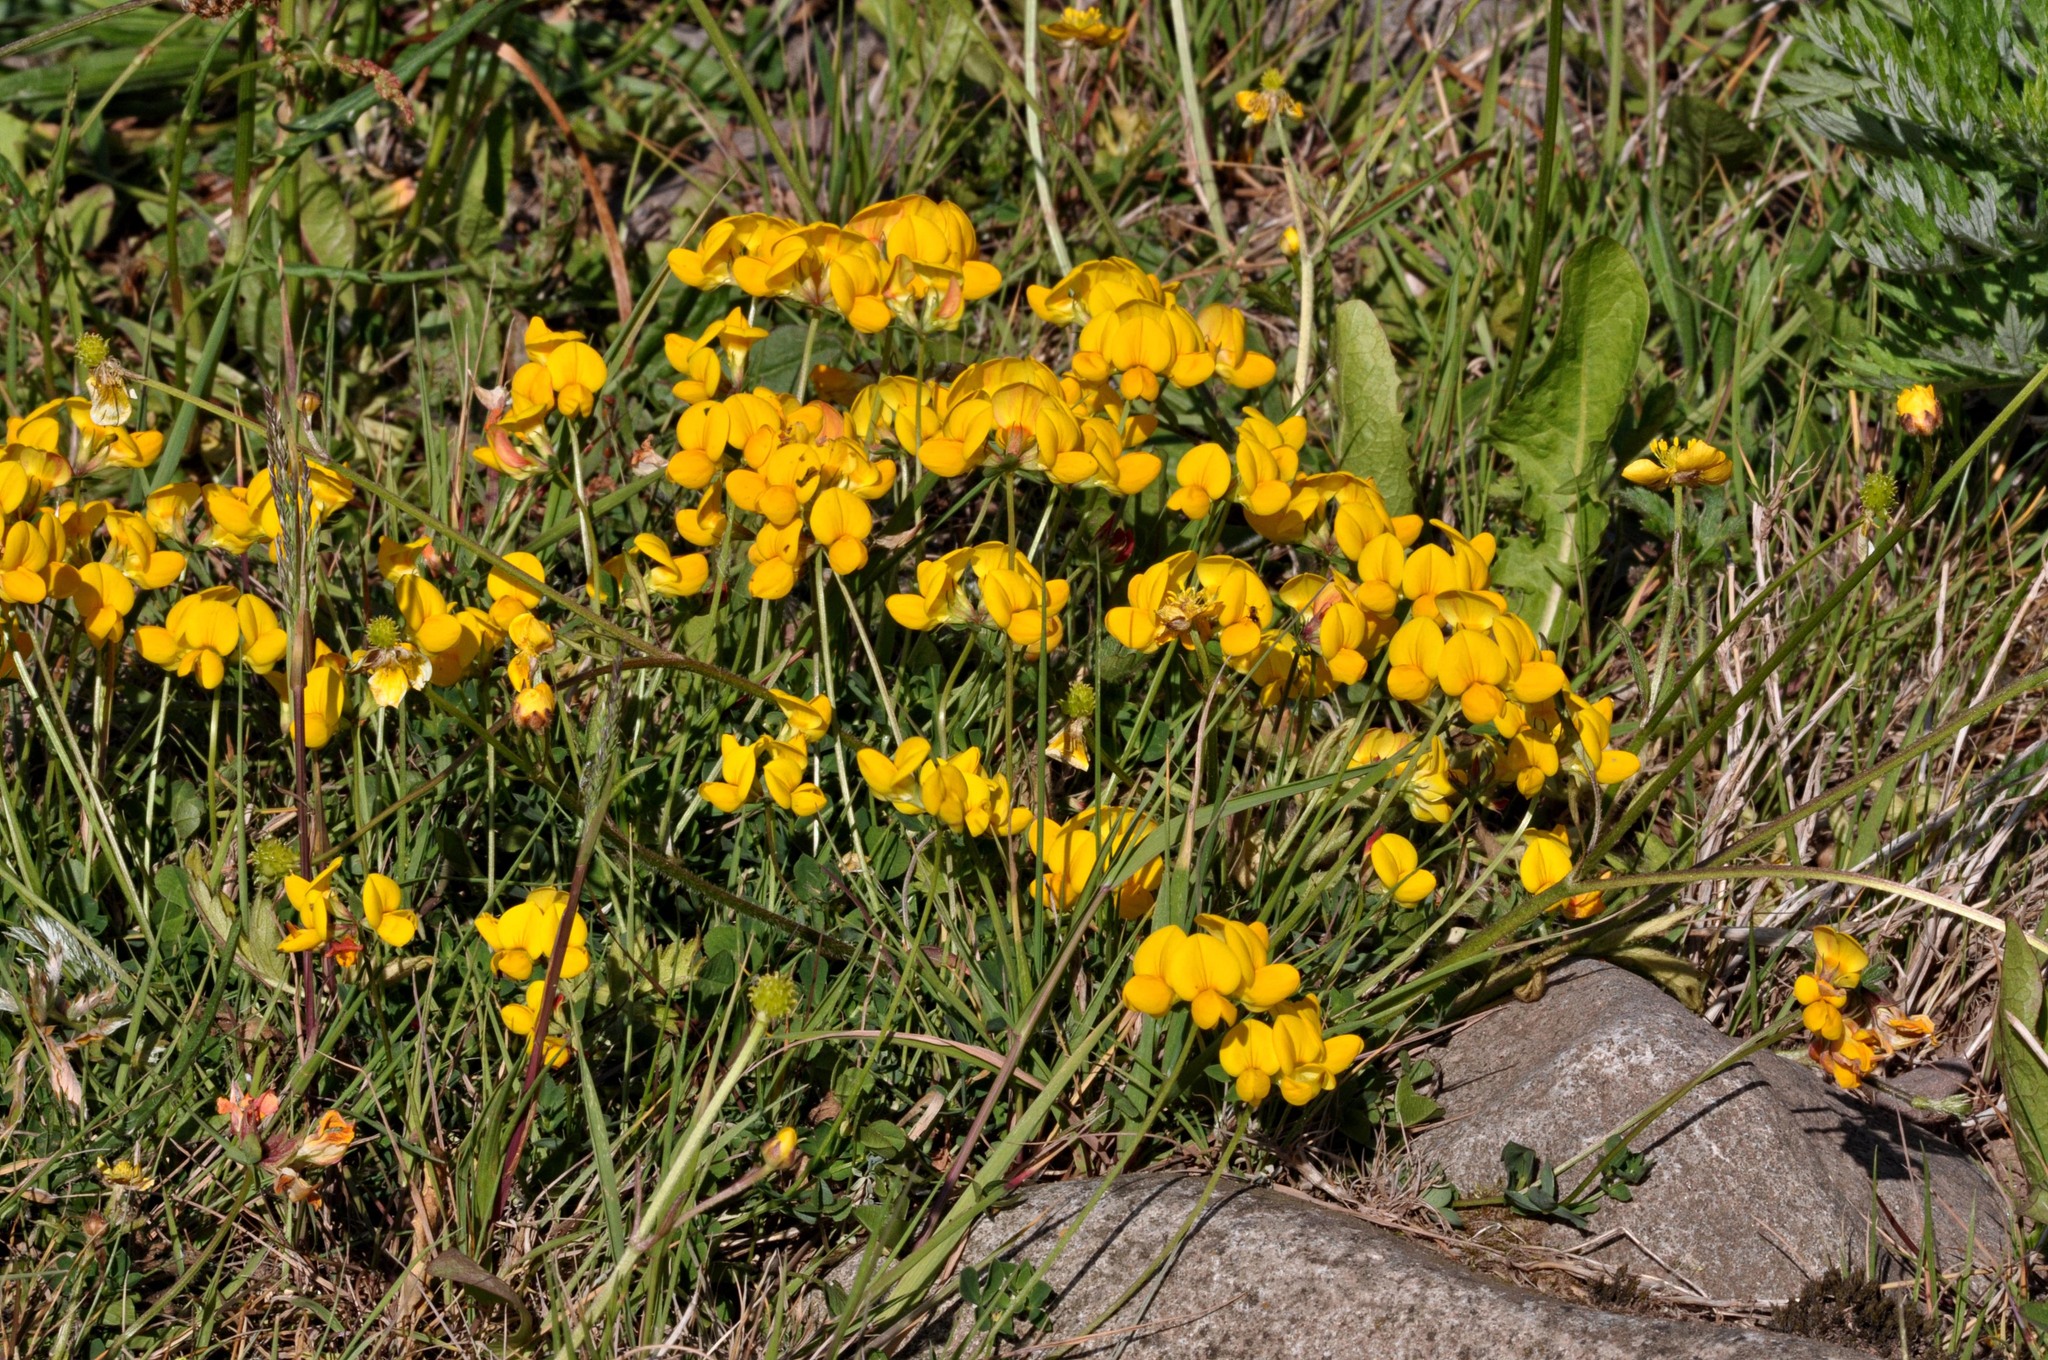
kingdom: Plantae
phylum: Tracheophyta
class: Magnoliopsida
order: Fabales
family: Fabaceae
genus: Lotus
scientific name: Lotus corniculatus
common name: Common bird's-foot-trefoil
